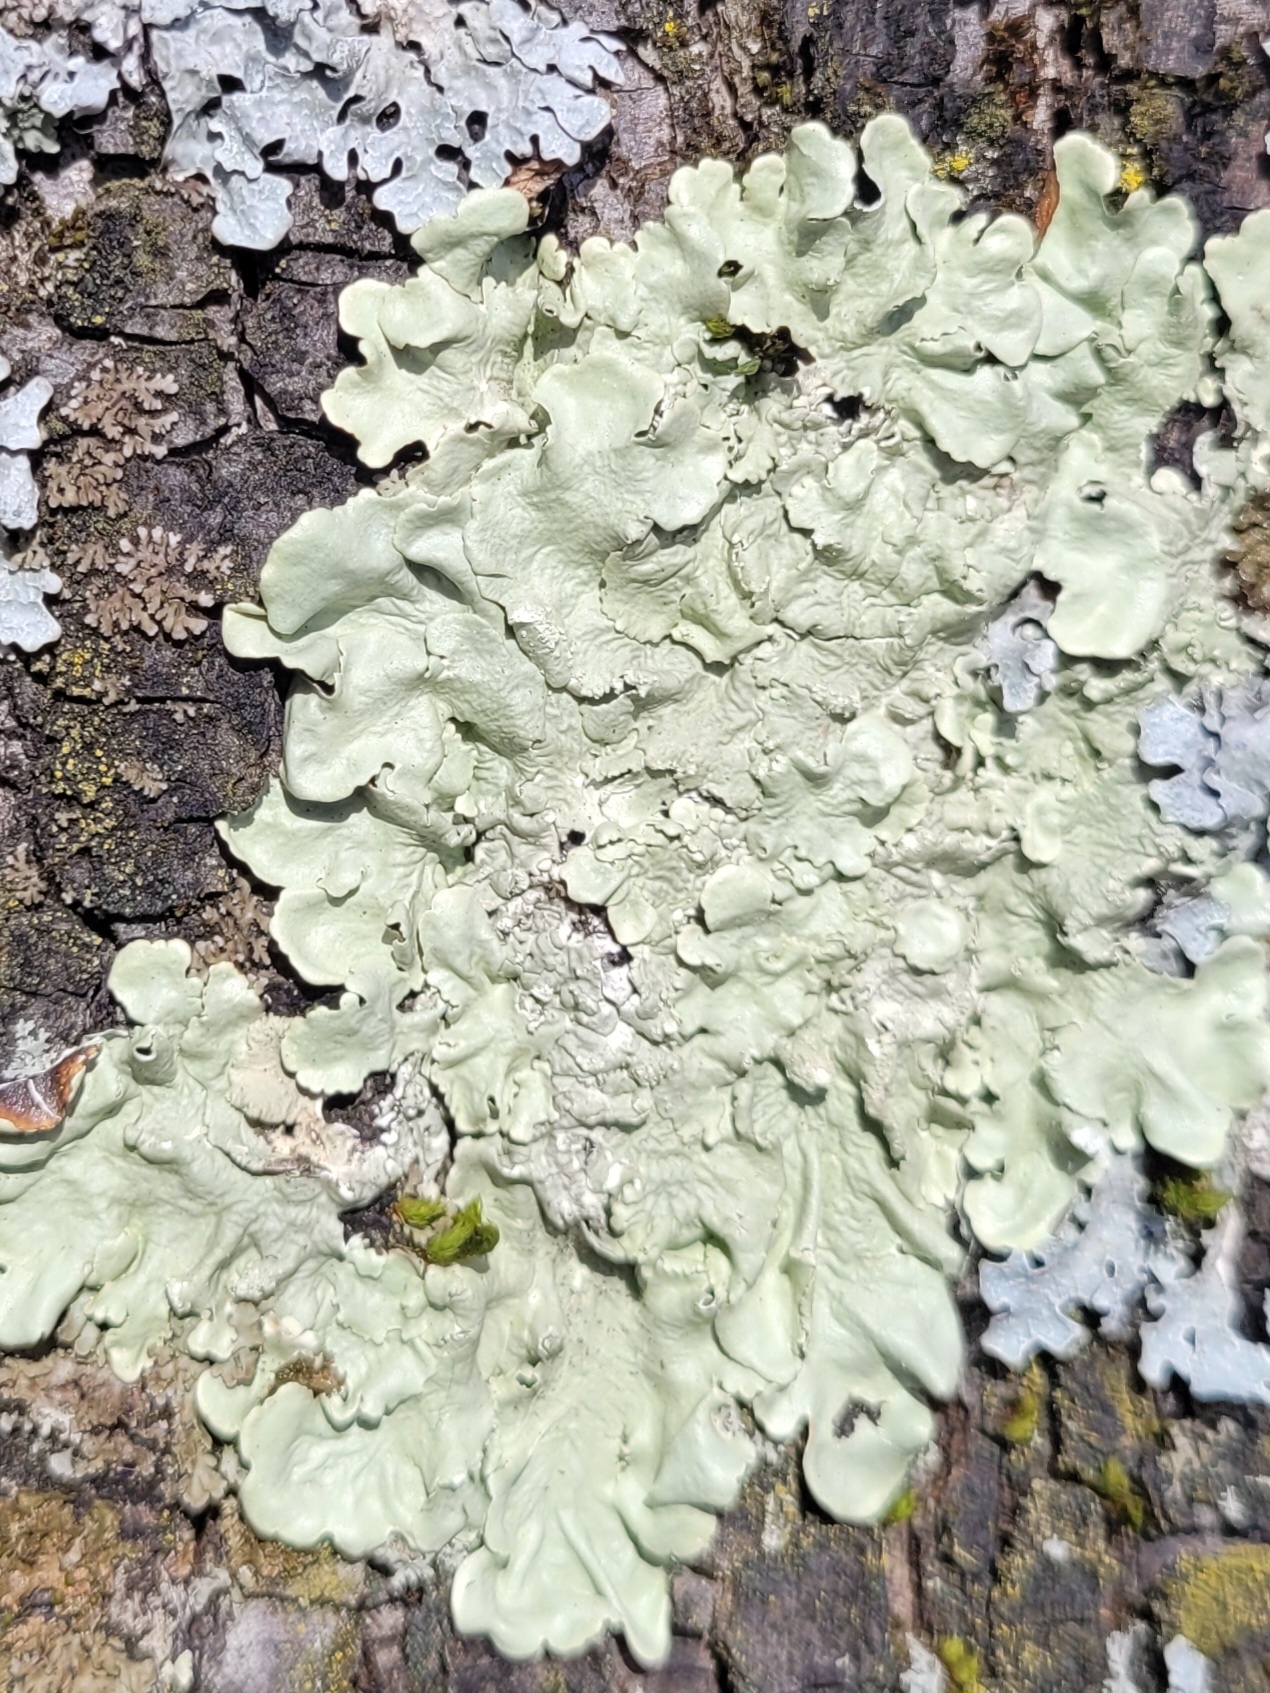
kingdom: Fungi
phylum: Ascomycota
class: Lecanoromycetes
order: Lecanorales
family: Parmeliaceae
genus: Flavoparmelia
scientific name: Flavoparmelia caperata
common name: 40-mile per hour lichen
